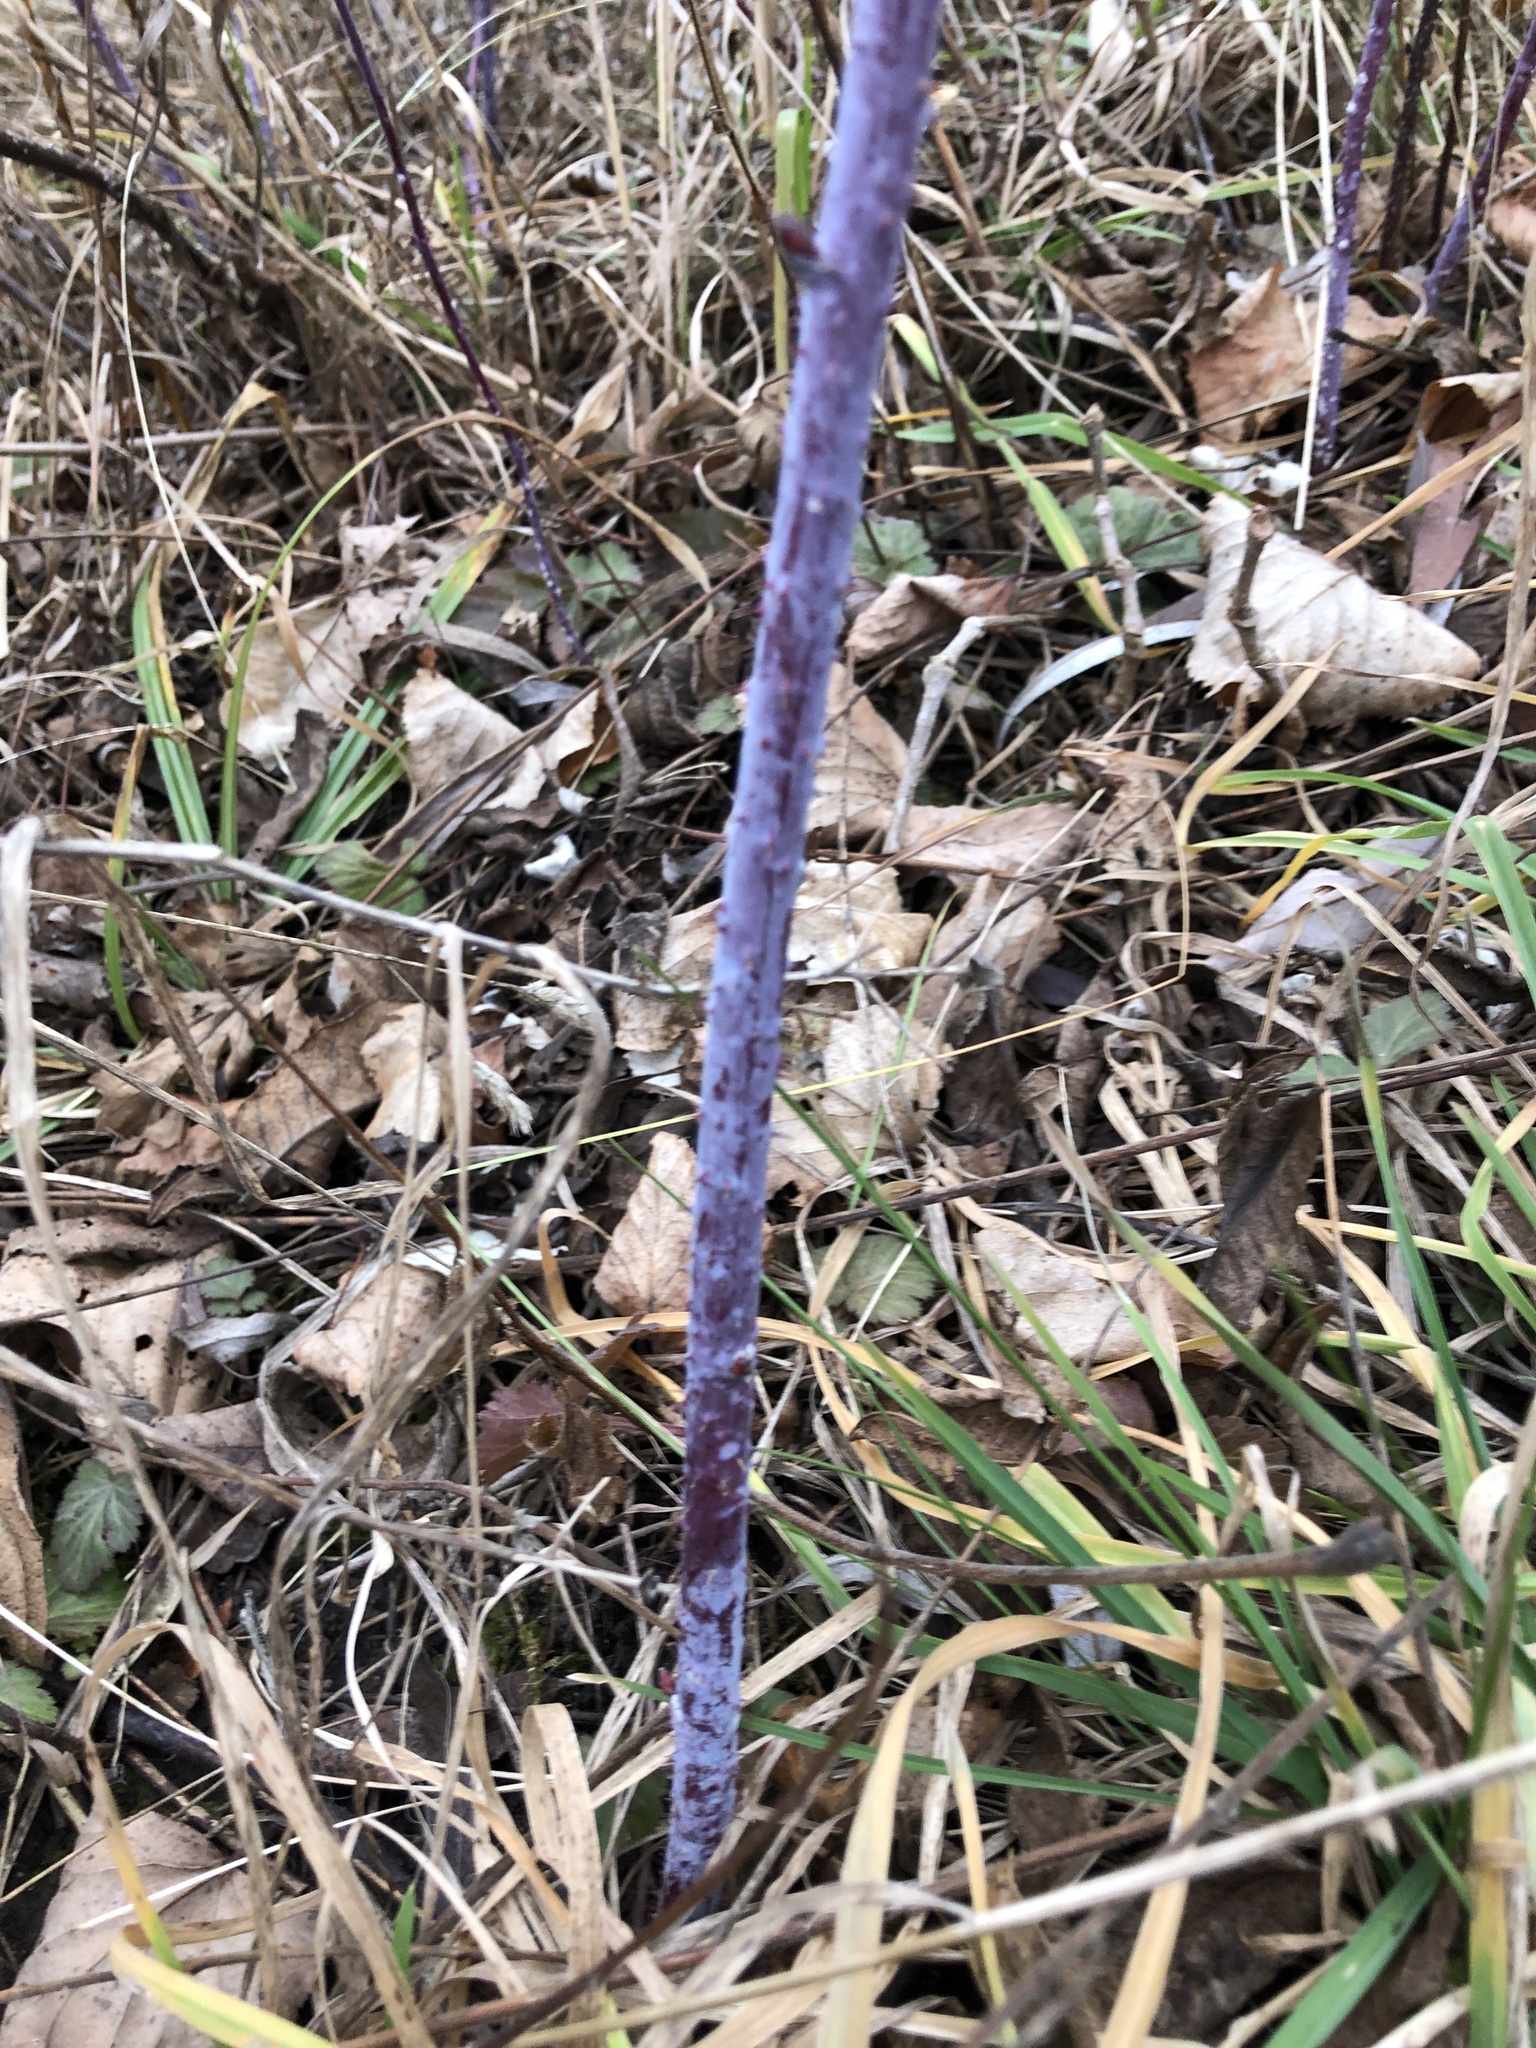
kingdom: Plantae
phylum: Tracheophyta
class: Magnoliopsida
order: Rosales
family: Rosaceae
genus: Rubus
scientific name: Rubus occidentalis
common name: Black raspberry
